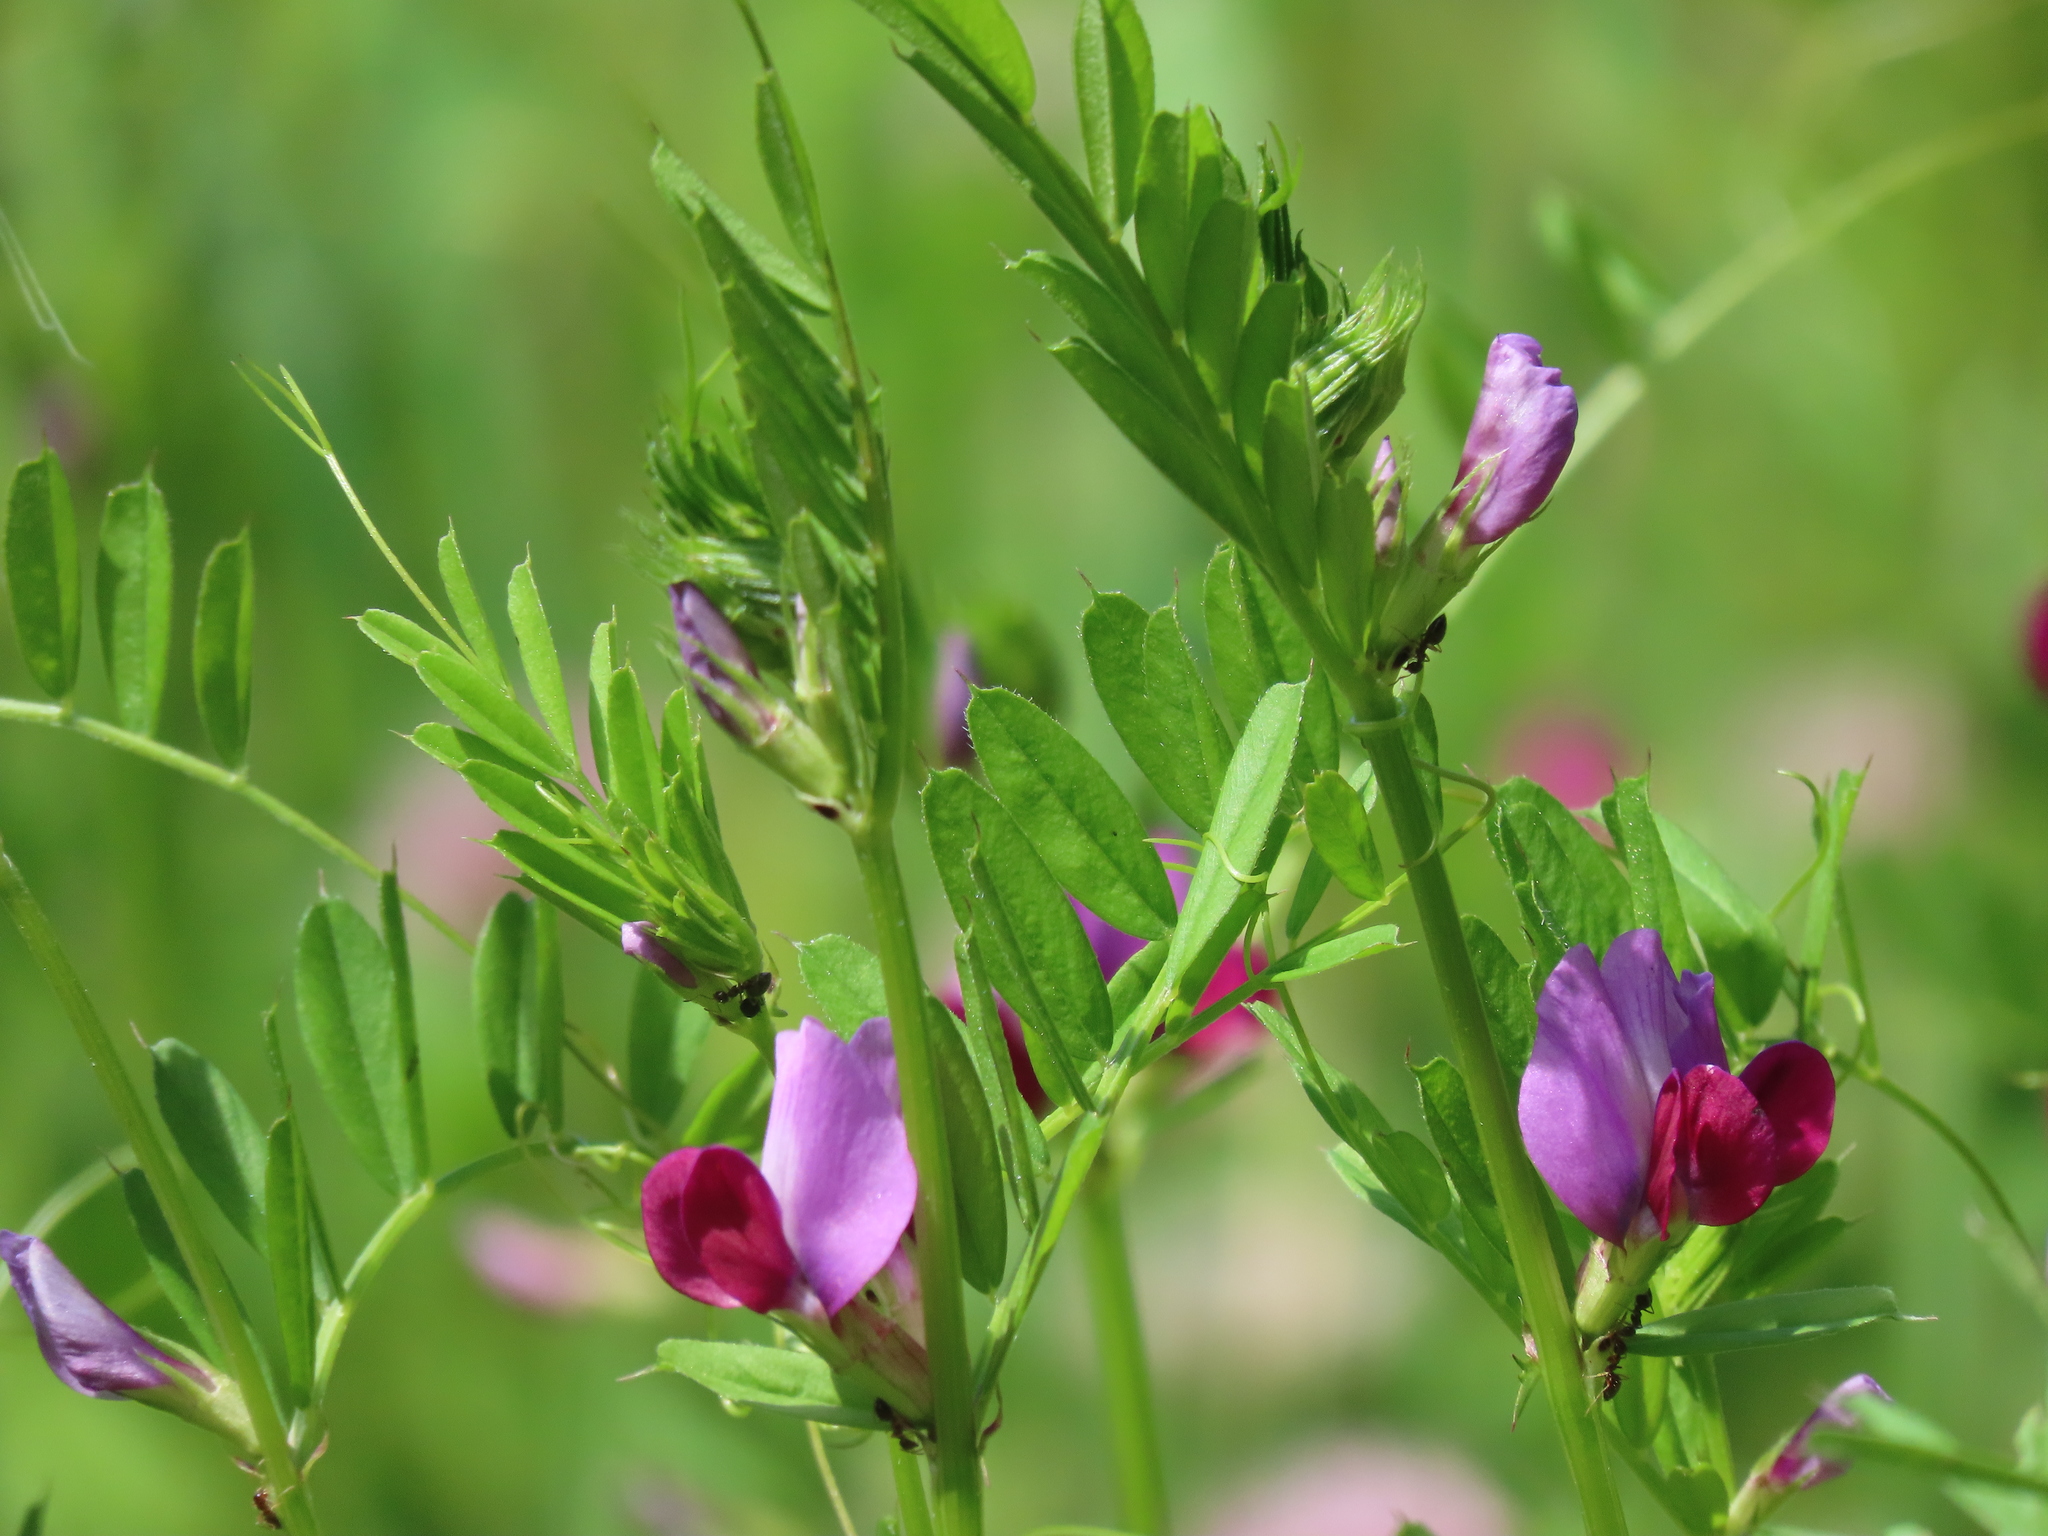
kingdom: Animalia
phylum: Arthropoda
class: Insecta
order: Lepidoptera
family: Lycaenidae
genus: Glaucopsyche
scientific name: Glaucopsyche lygdamus
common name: Silvery blue
